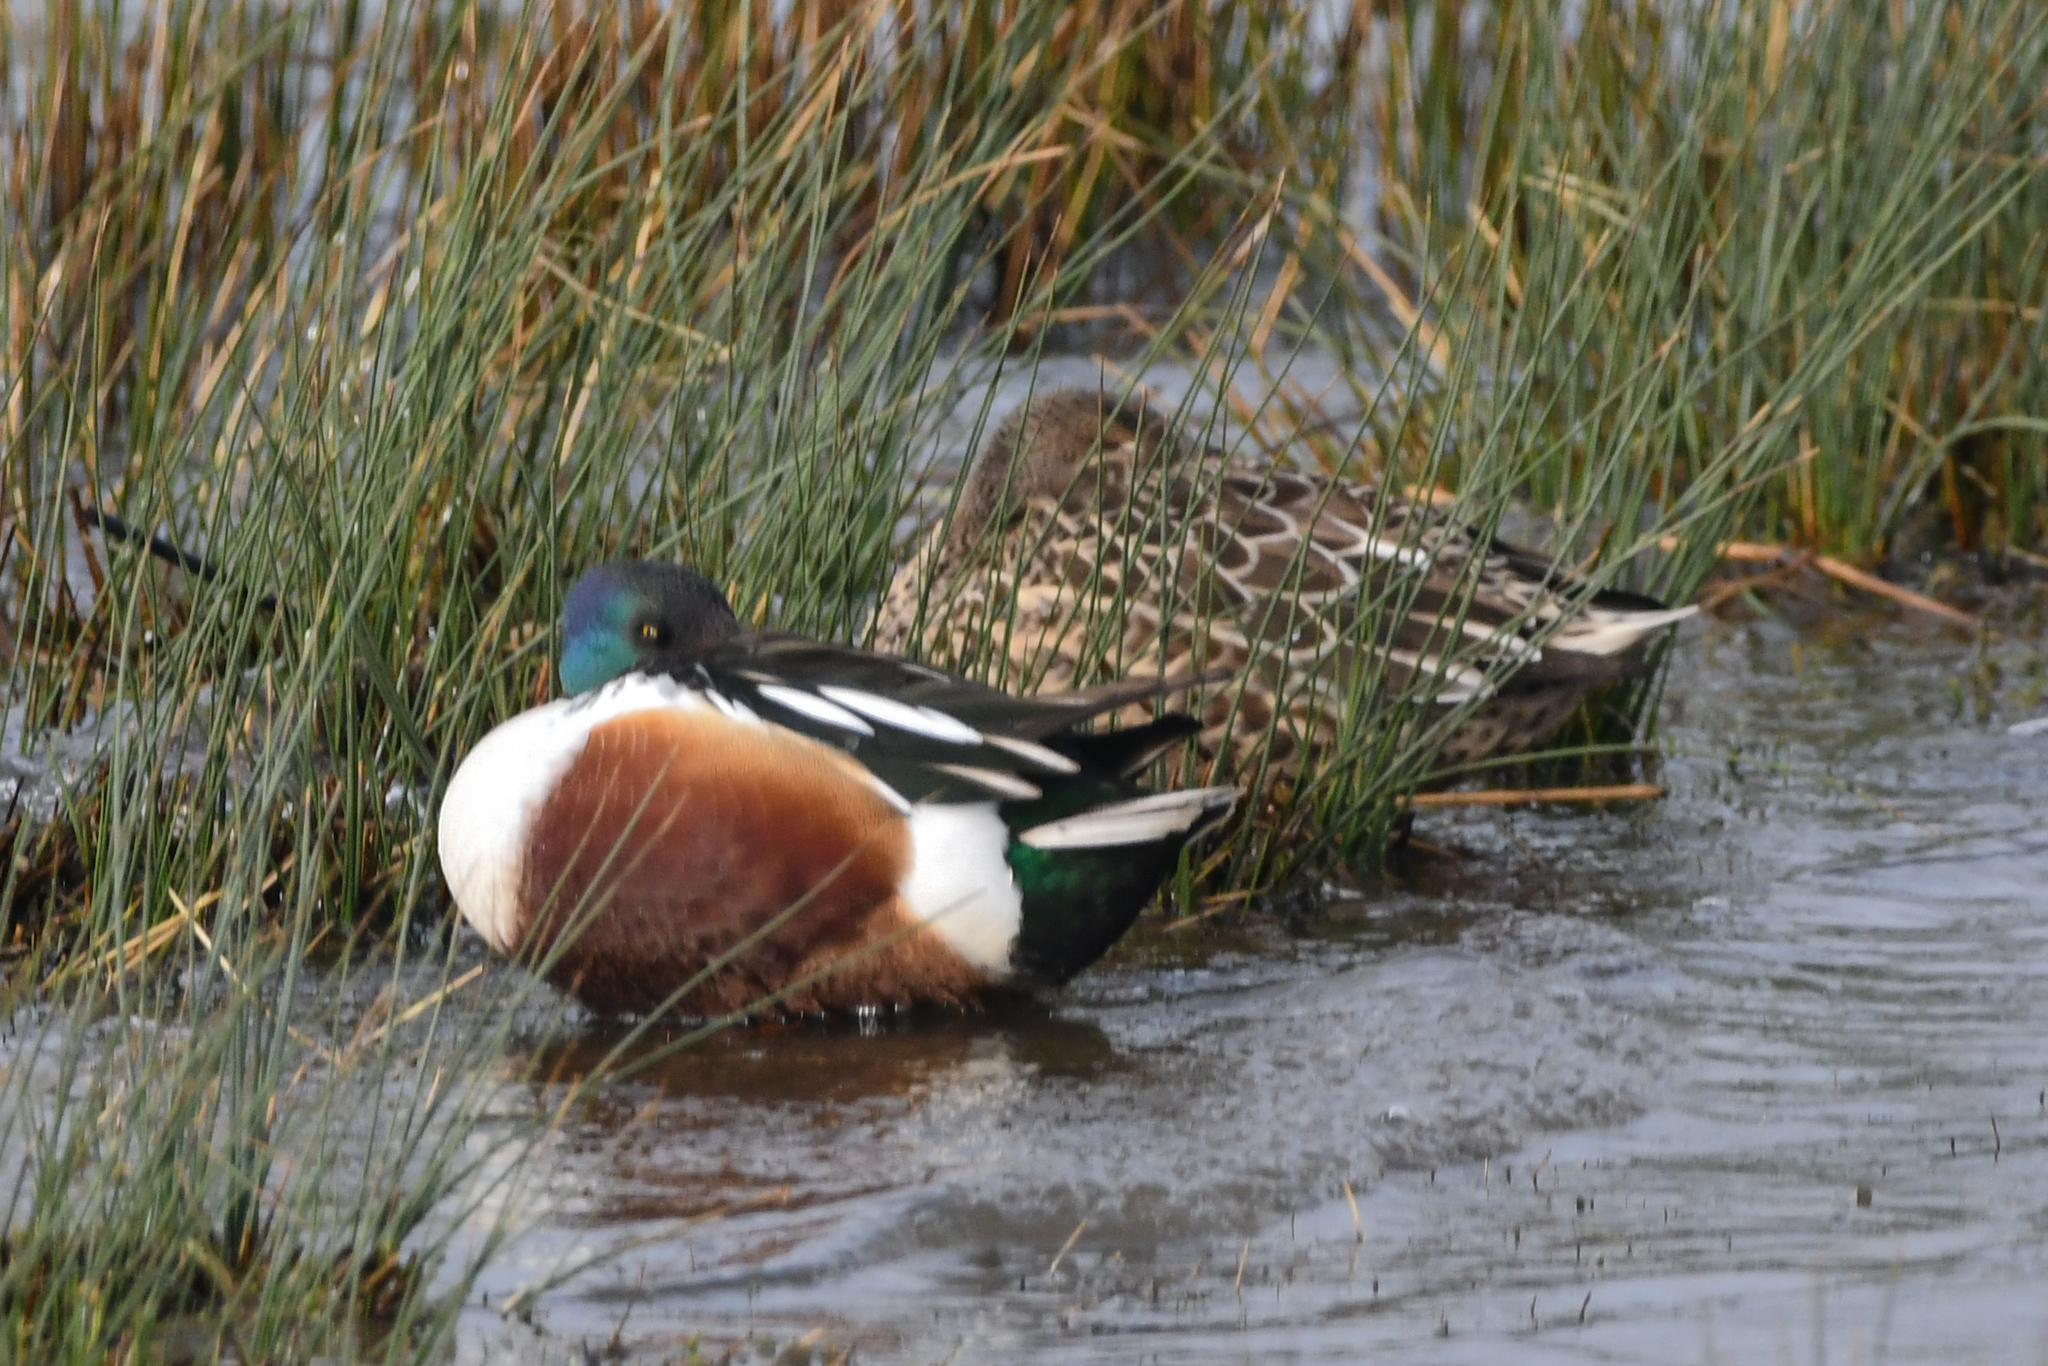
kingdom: Animalia
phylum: Chordata
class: Aves
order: Anseriformes
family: Anatidae
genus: Spatula
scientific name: Spatula clypeata
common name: Northern shoveler
